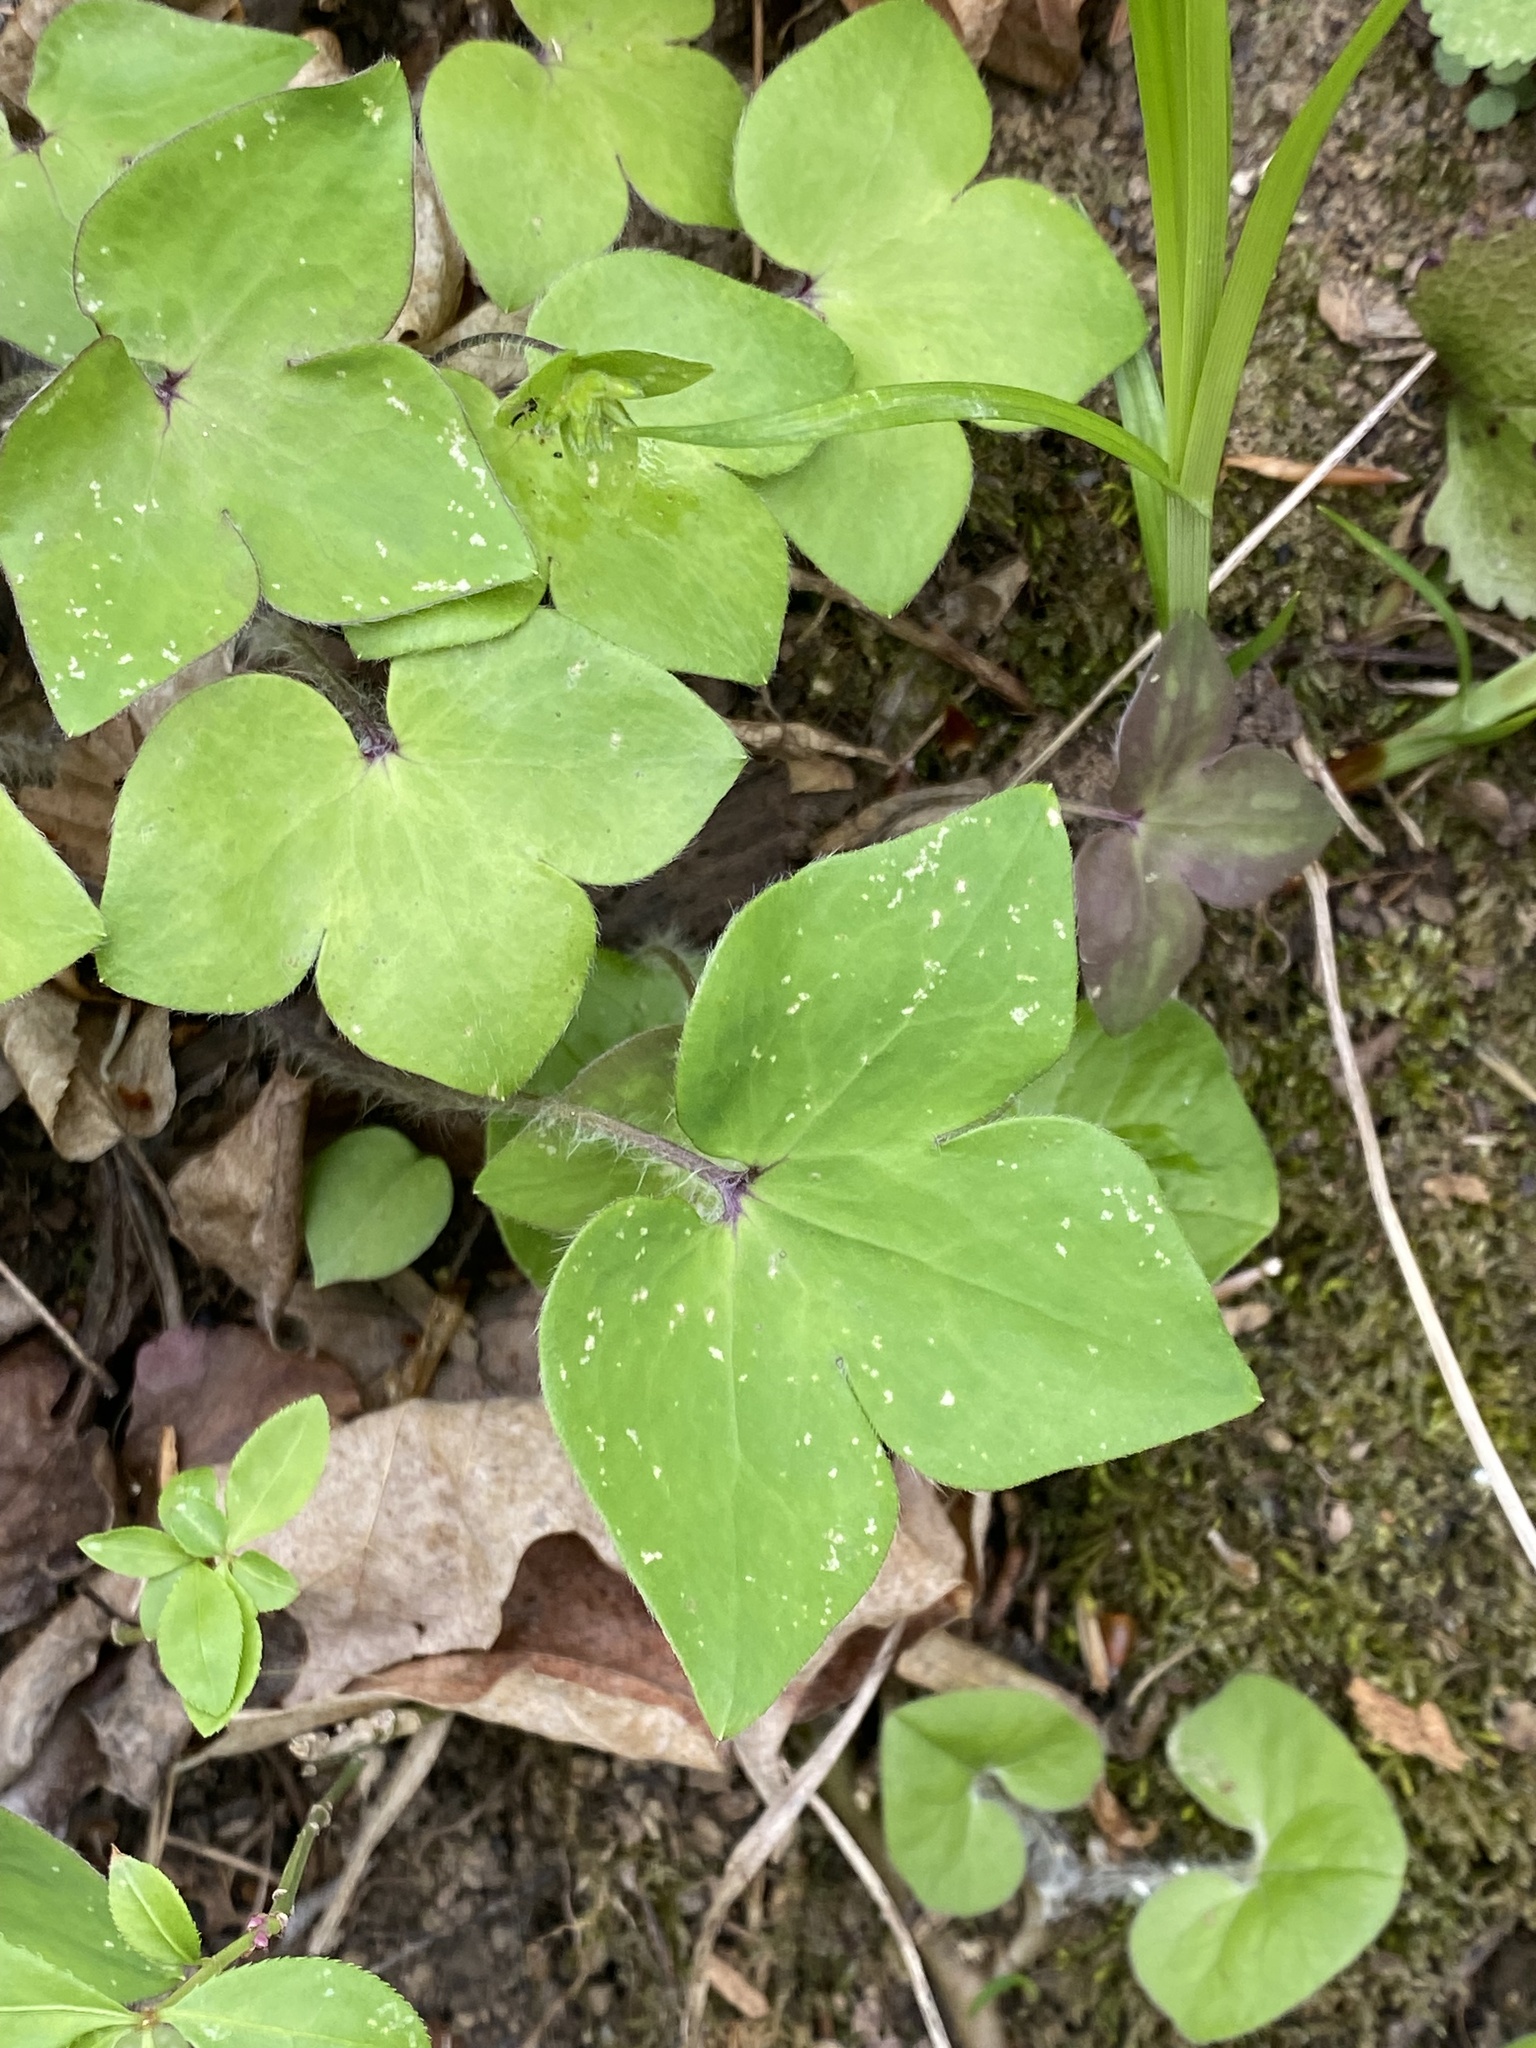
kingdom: Plantae
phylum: Tracheophyta
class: Magnoliopsida
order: Ranunculales
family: Ranunculaceae
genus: Hepatica
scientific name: Hepatica acutiloba
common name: Sharp-lobed hepatica
